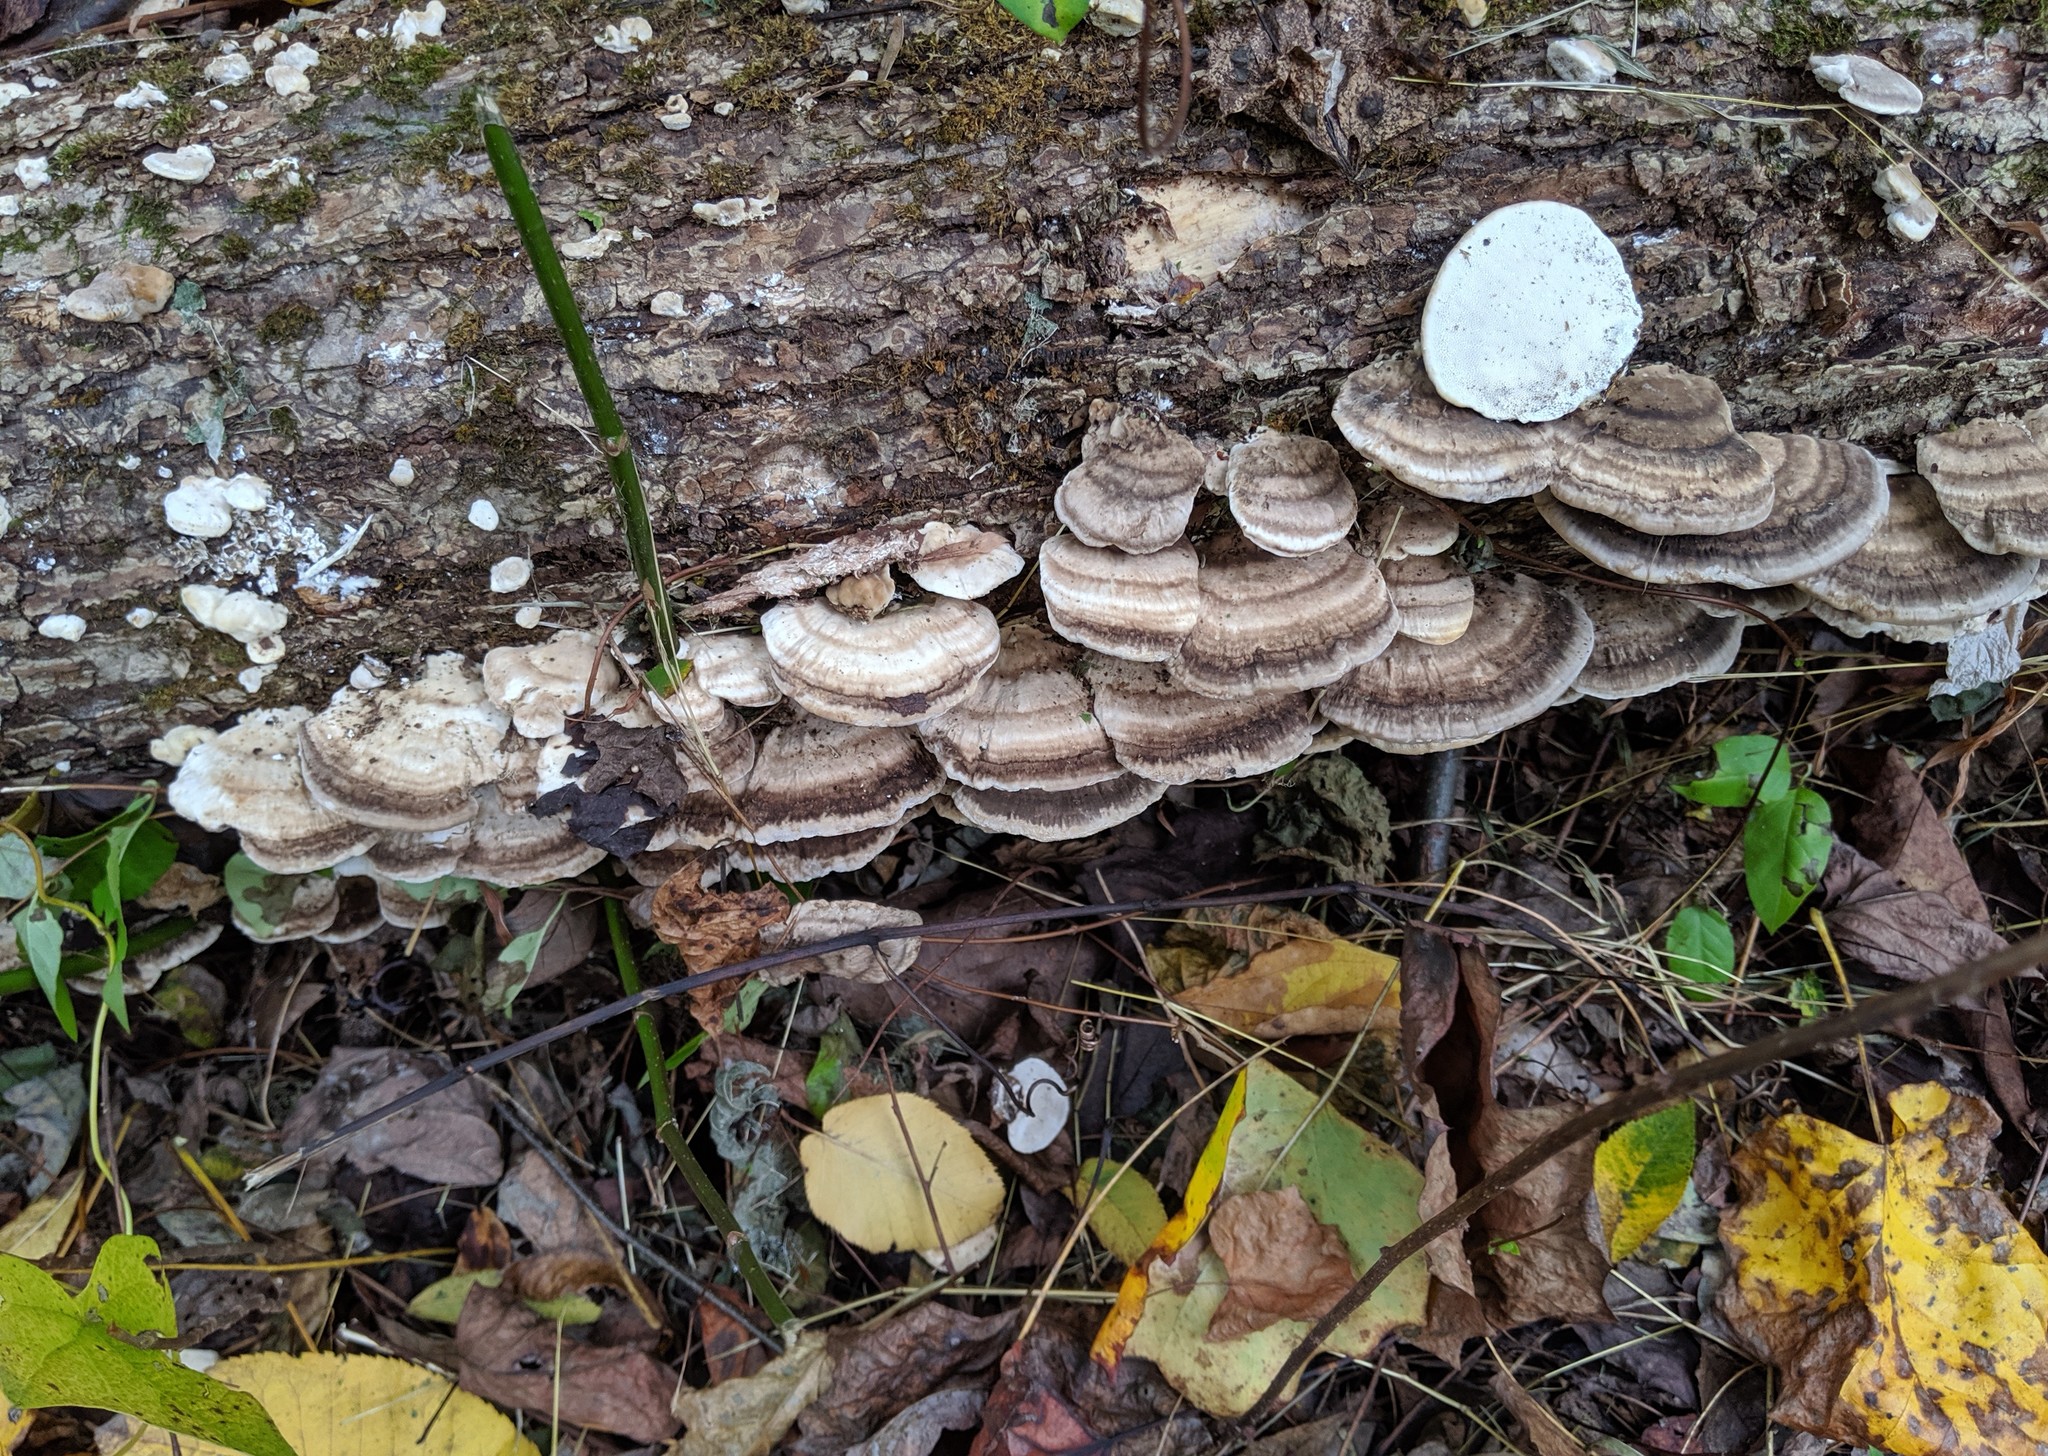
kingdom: Fungi
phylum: Basidiomycota
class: Agaricomycetes
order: Polyporales
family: Polyporaceae
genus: Trametes
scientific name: Trametes lactinea
